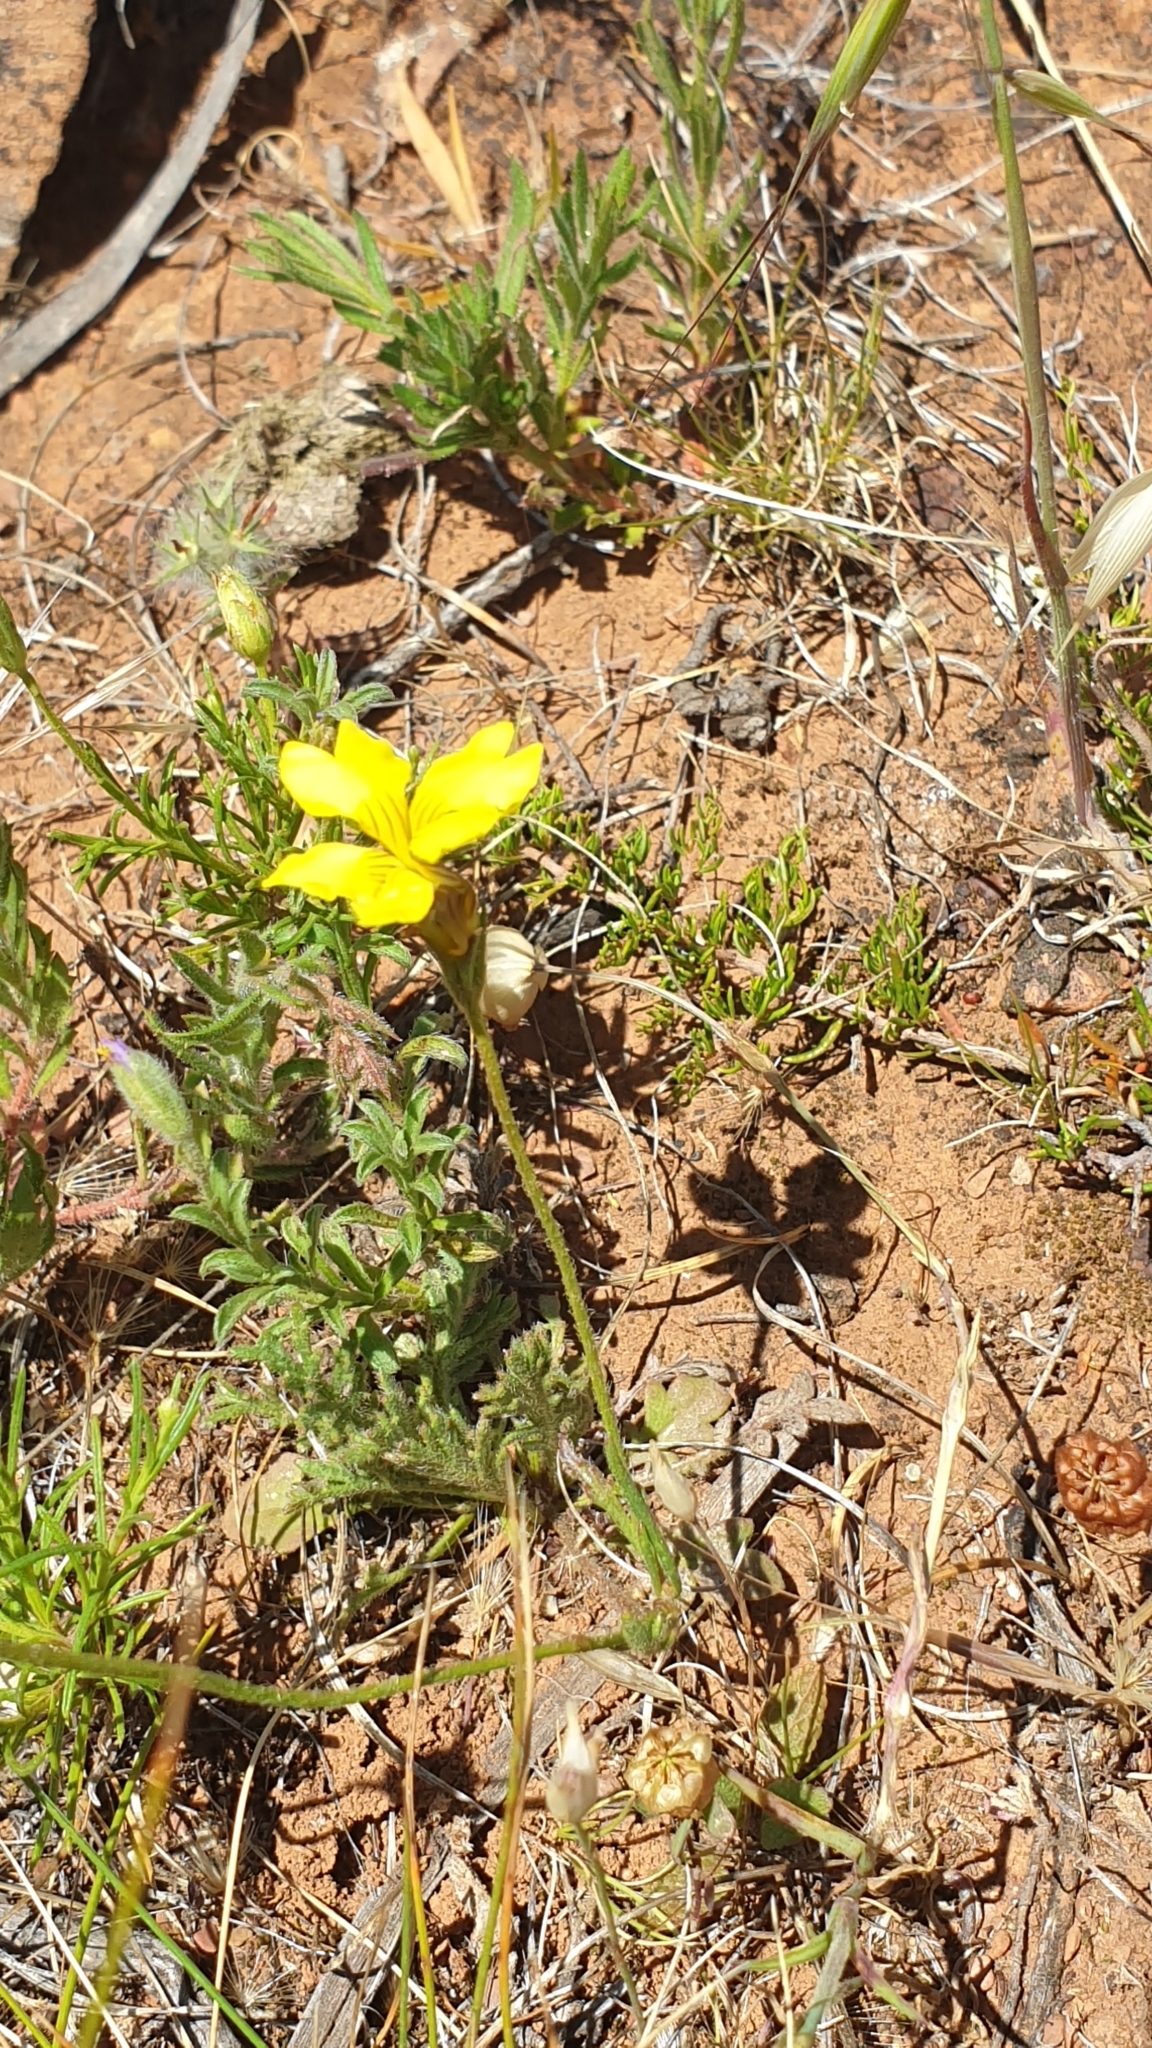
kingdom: Plantae
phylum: Tracheophyta
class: Magnoliopsida
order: Asterales
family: Goodeniaceae
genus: Goodenia
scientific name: Goodenia pinnatifida
